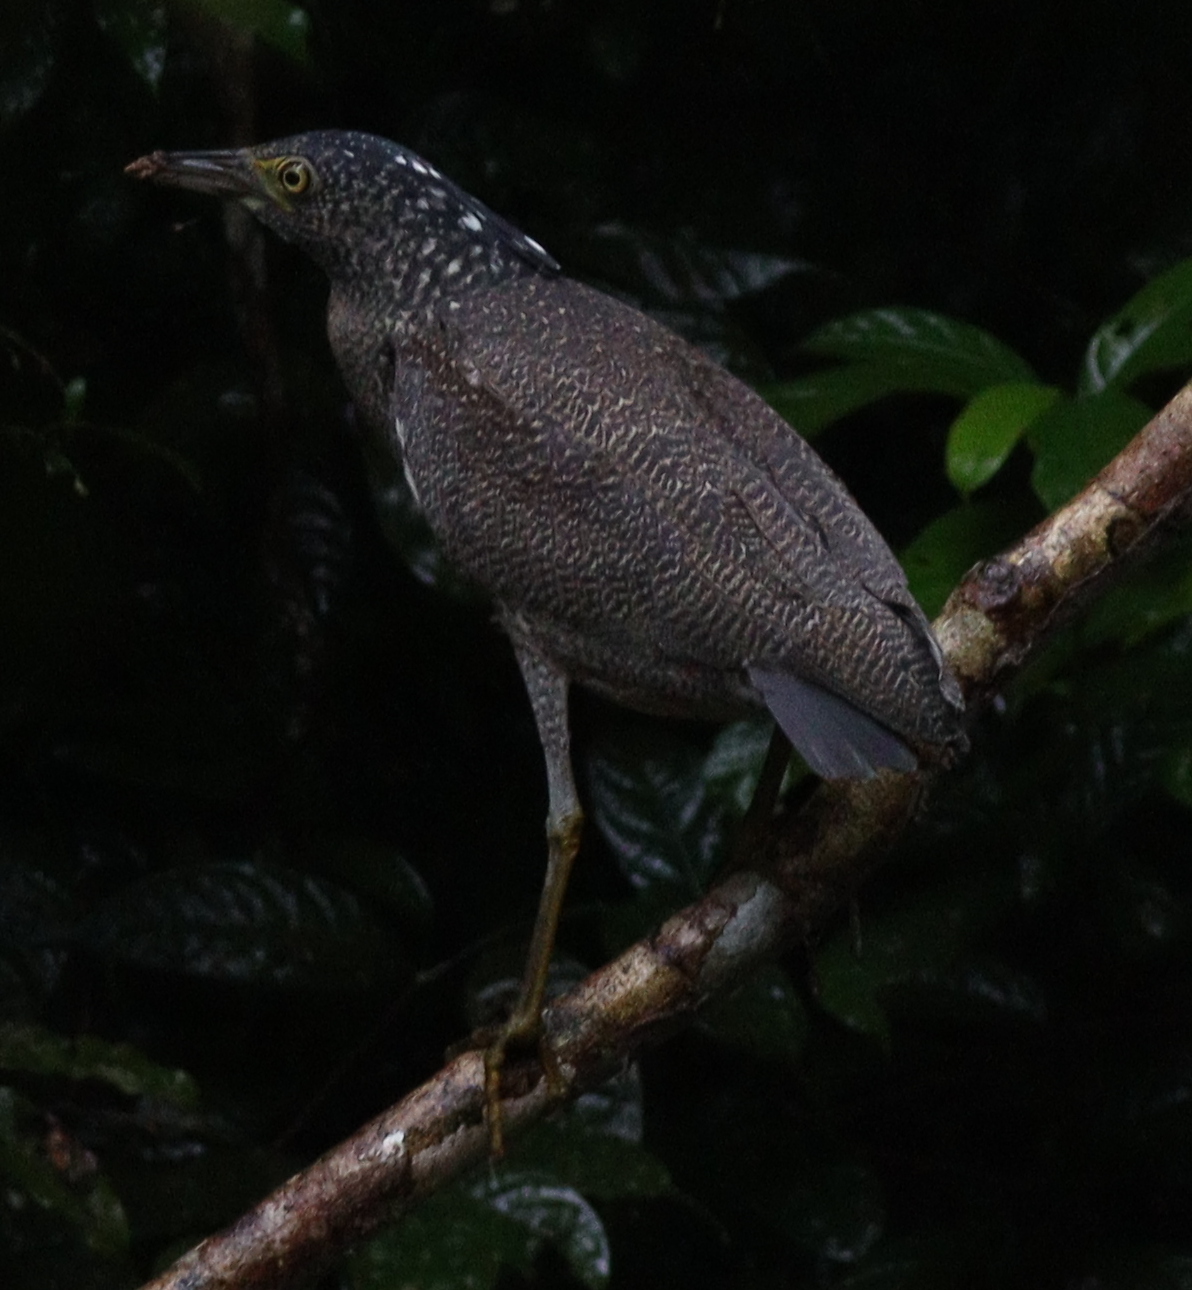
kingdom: Animalia
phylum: Chordata
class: Aves
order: Pelecaniformes
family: Ardeidae
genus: Gorsachius
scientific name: Gorsachius melanolophus
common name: Malayan night heron
